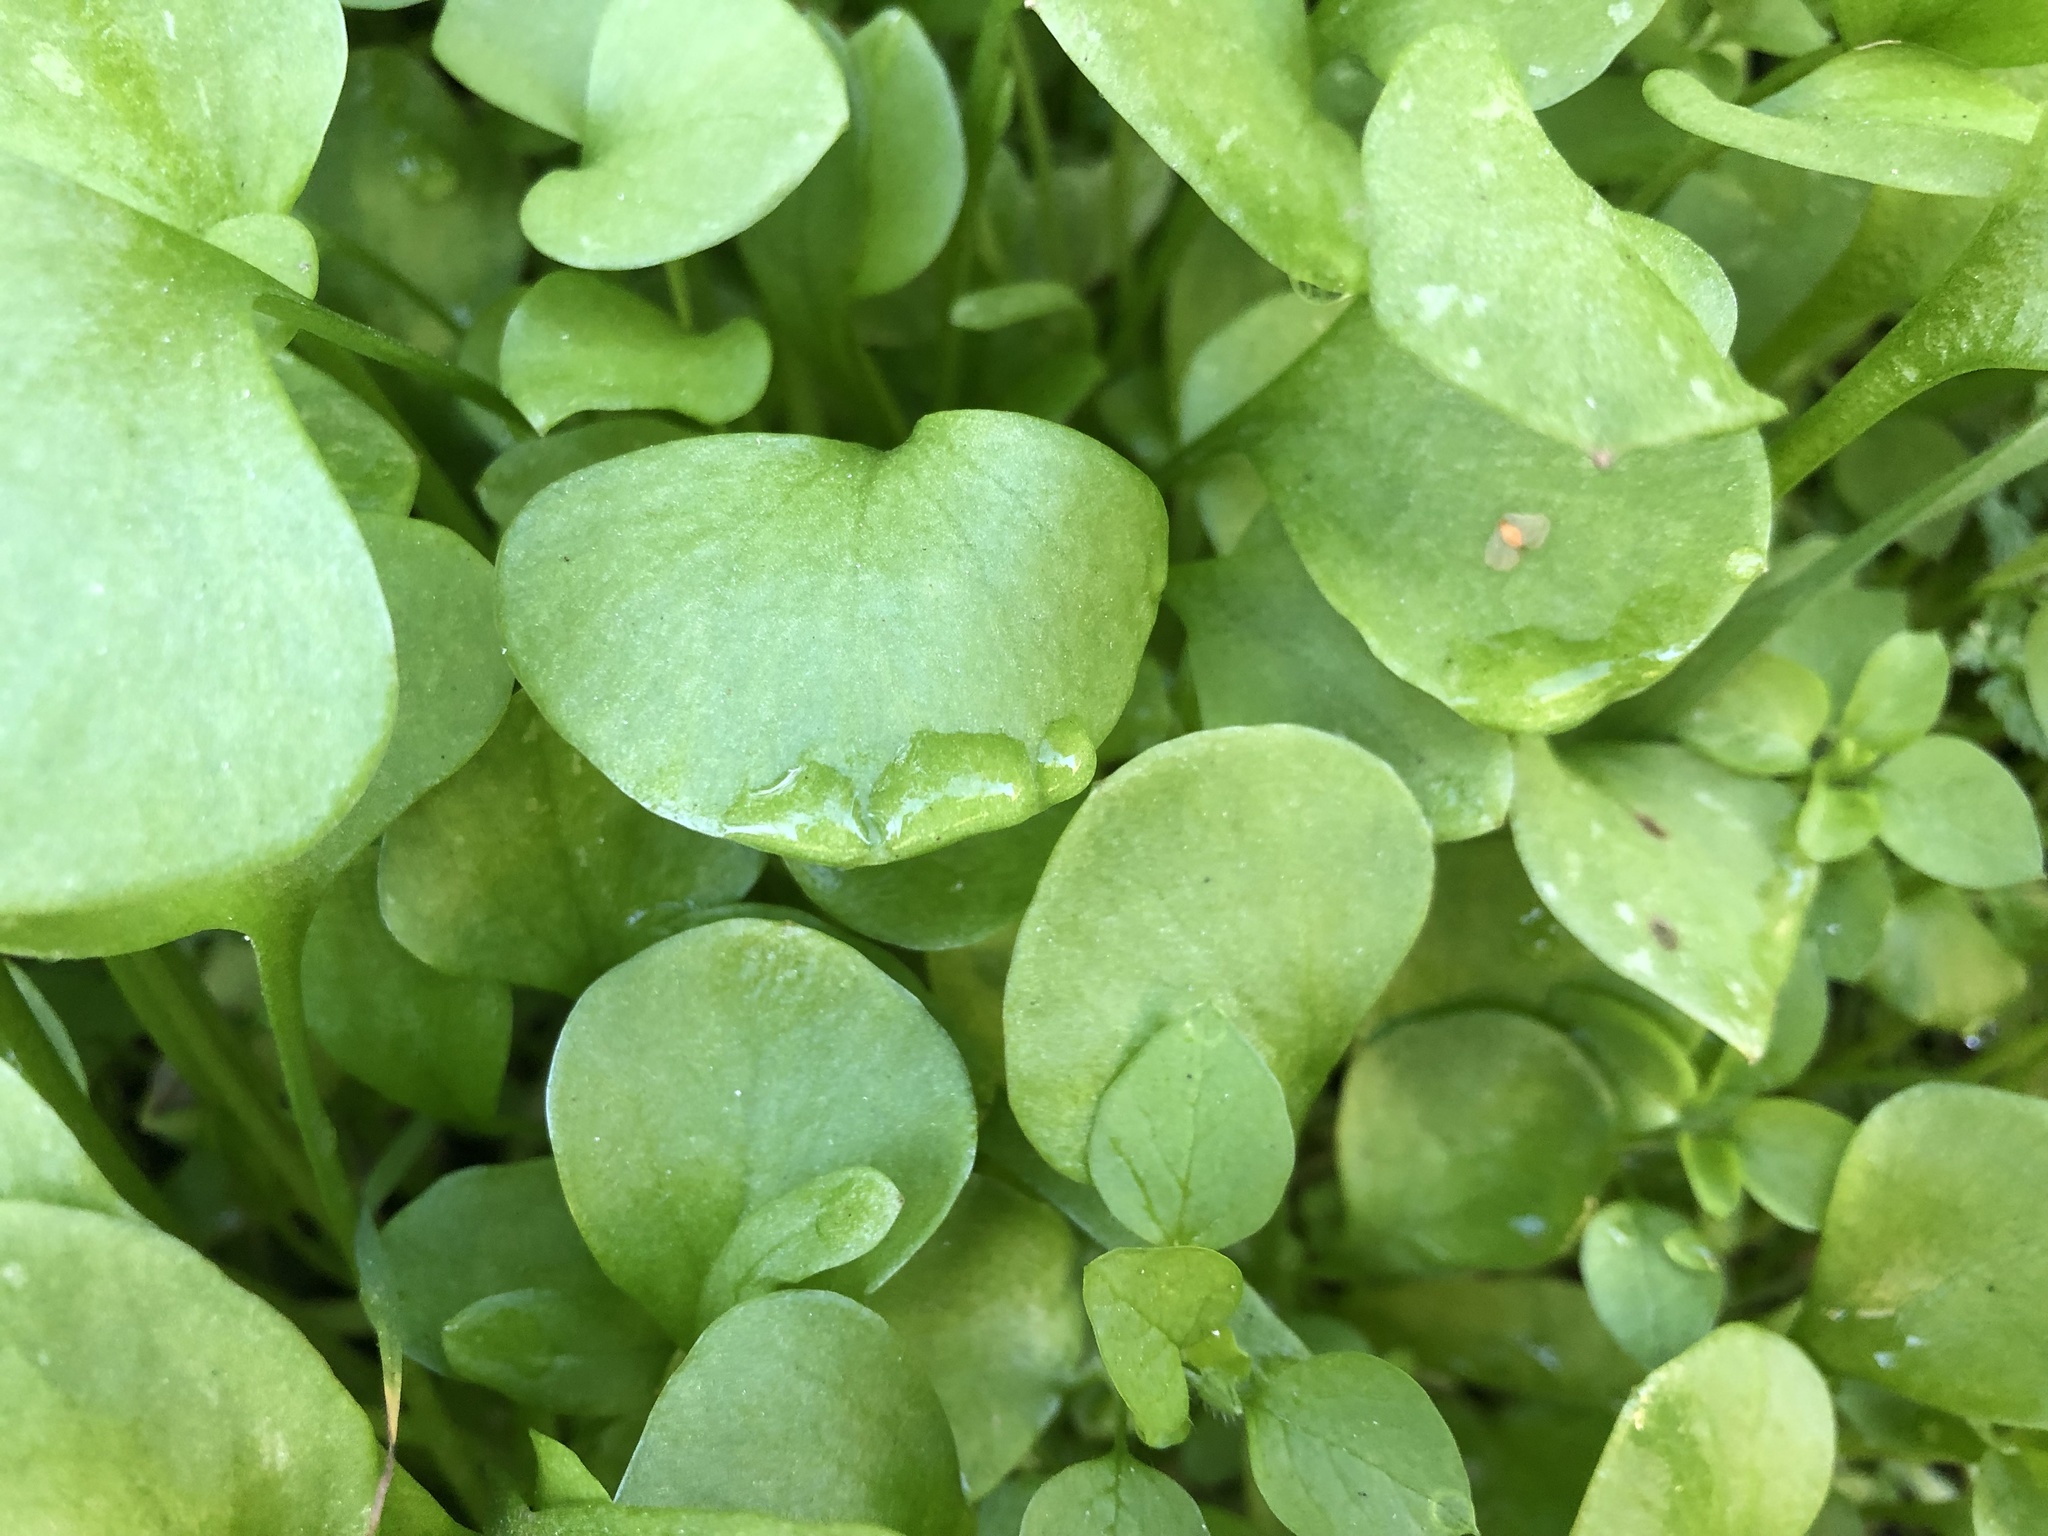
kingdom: Plantae
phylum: Tracheophyta
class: Magnoliopsida
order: Caryophyllales
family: Montiaceae
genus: Claytonia
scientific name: Claytonia perfoliata
